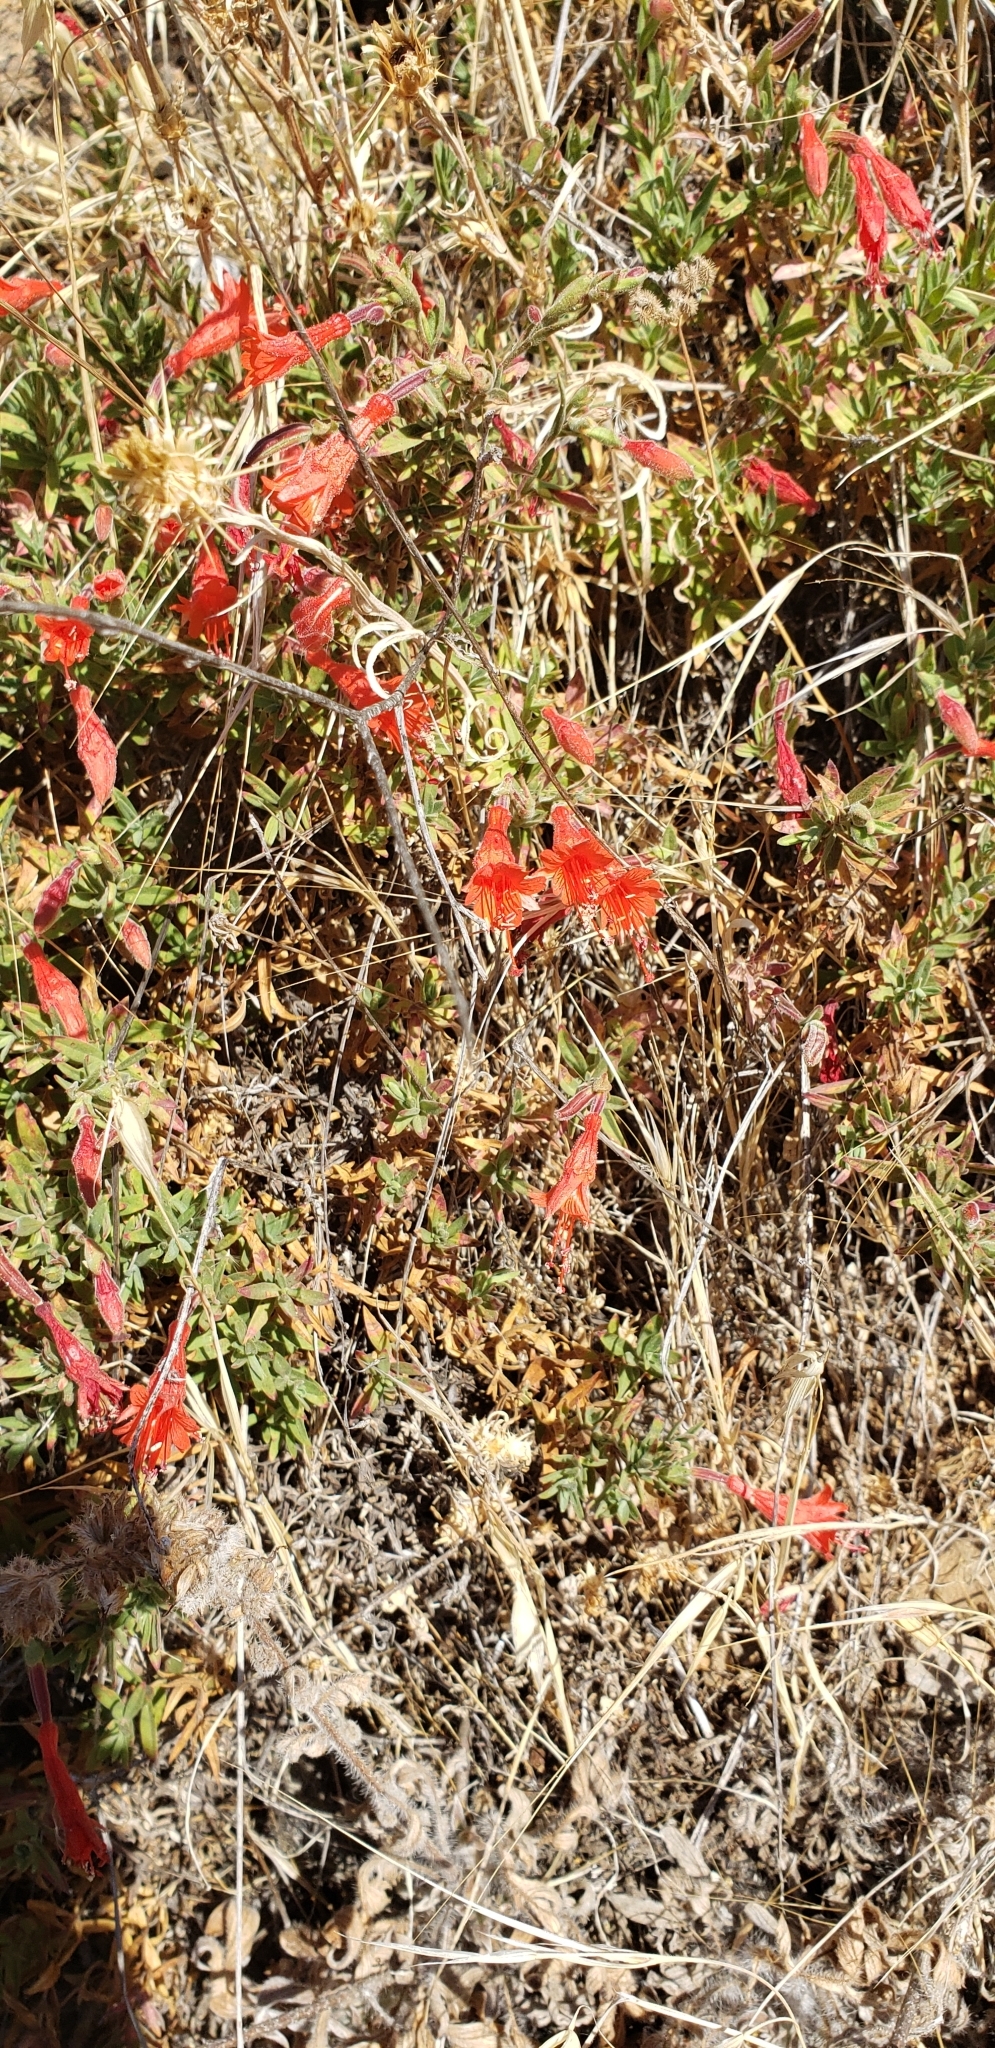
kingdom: Plantae
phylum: Tracheophyta
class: Magnoliopsida
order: Myrtales
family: Onagraceae
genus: Epilobium
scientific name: Epilobium canum
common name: California-fuchsia
